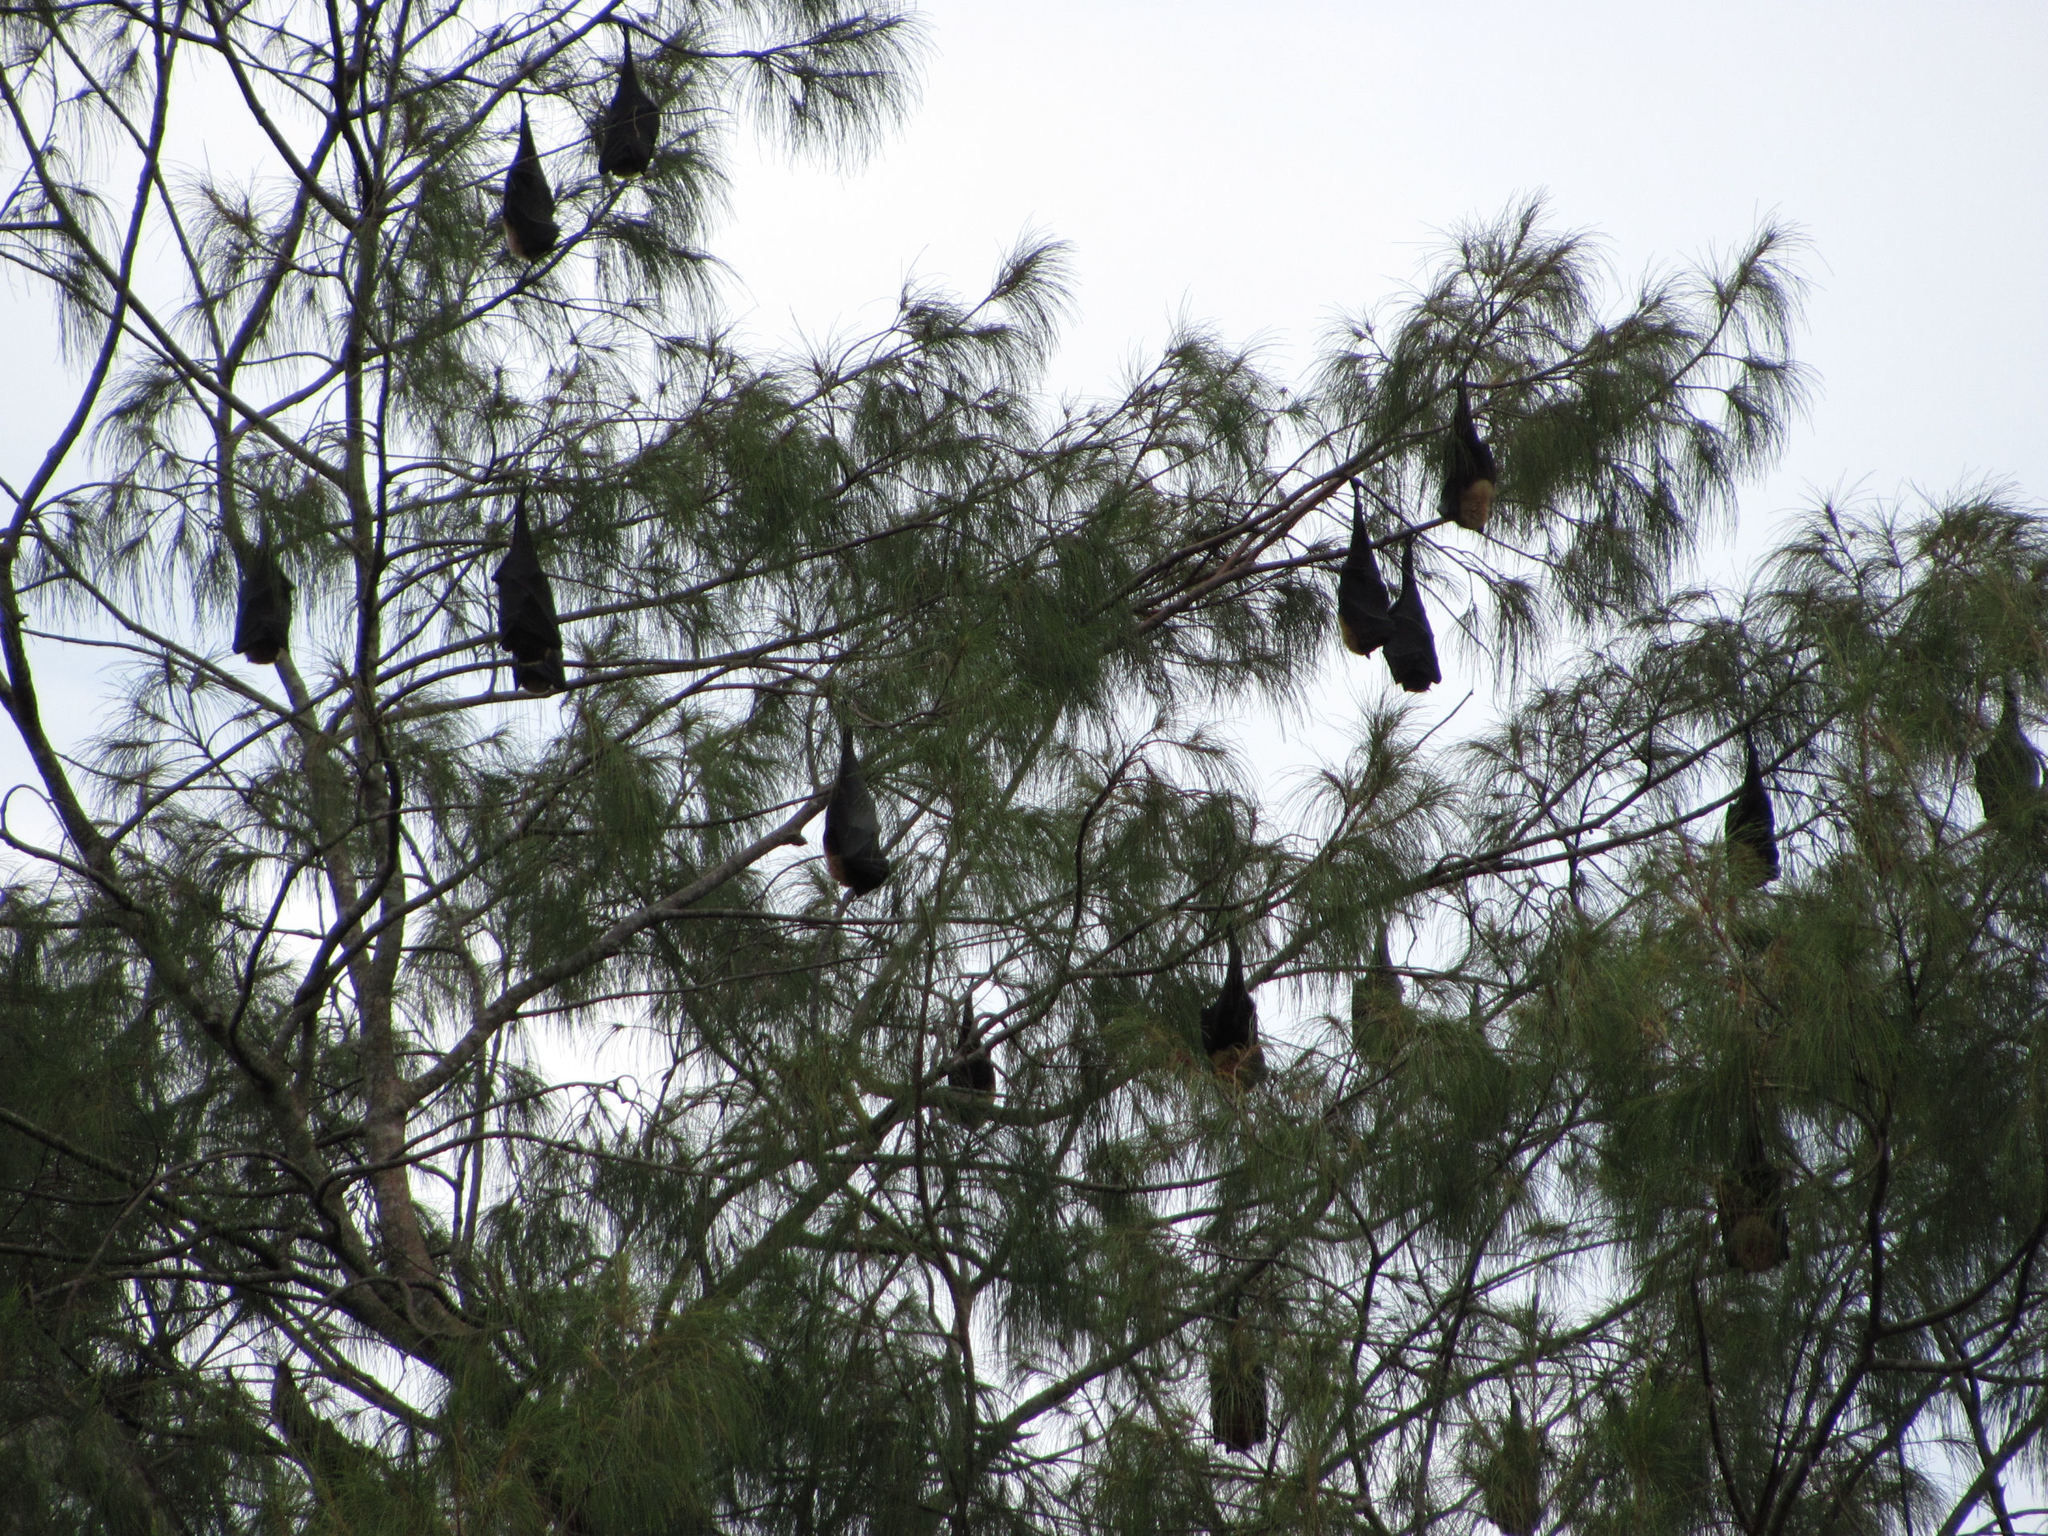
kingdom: Animalia
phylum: Chordata
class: Mammalia
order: Chiroptera
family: Pteropodidae
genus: Pteropus
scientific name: Pteropus tonganus
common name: Pacific flying fox
